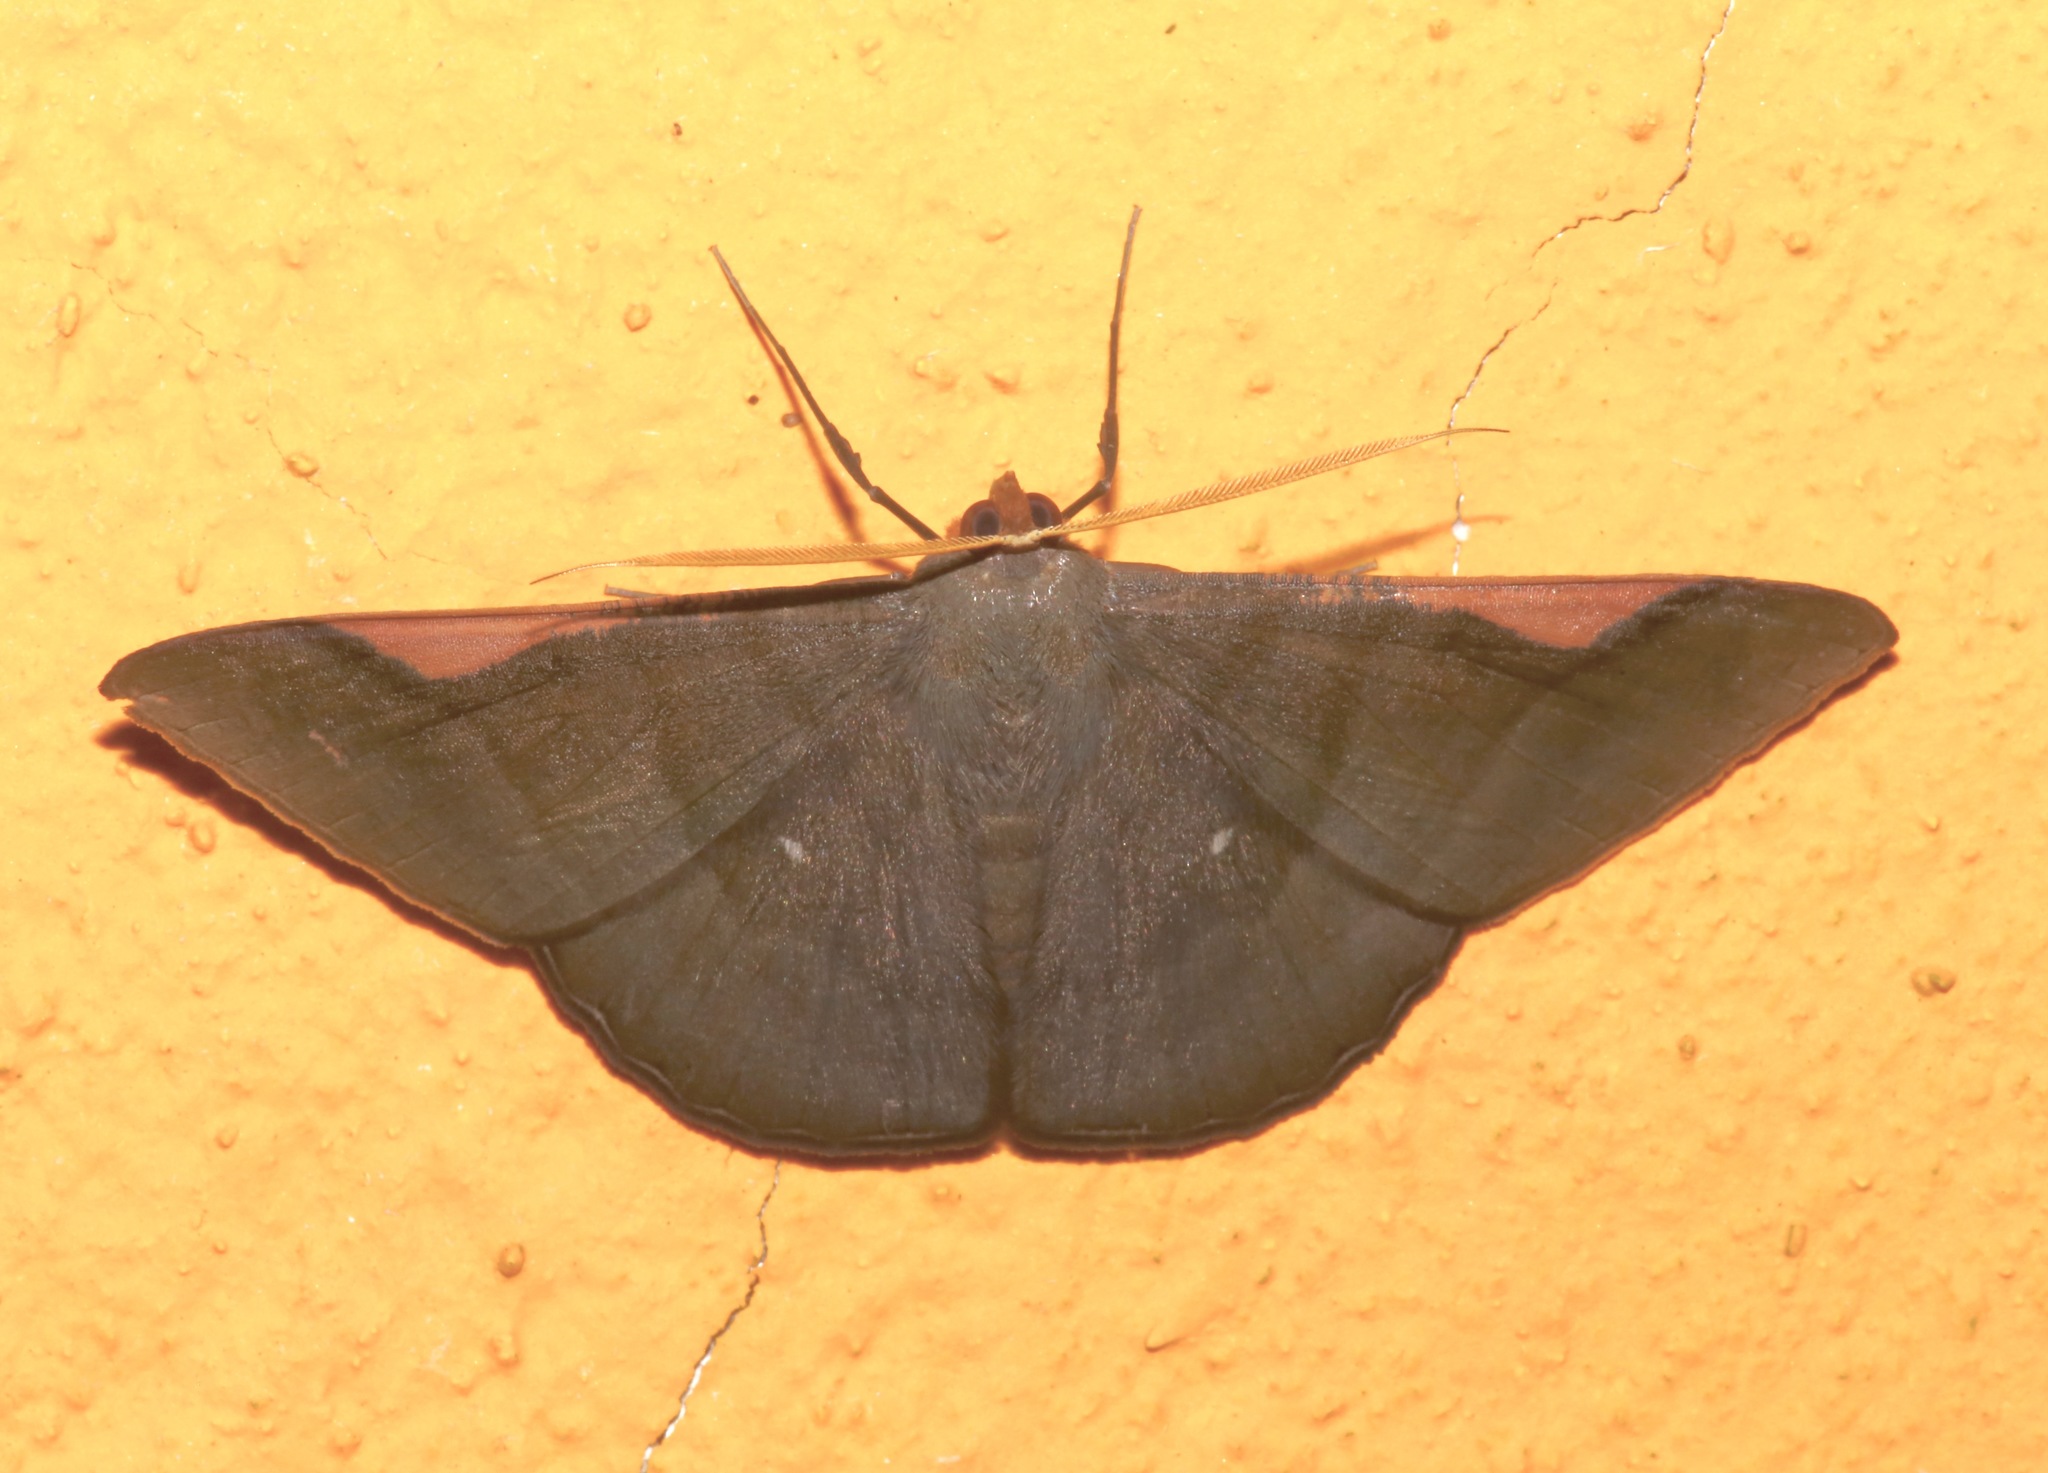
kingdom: Animalia
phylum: Arthropoda
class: Insecta
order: Lepidoptera
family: Geometridae
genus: Sphacelodes
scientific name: Sphacelodes vulneraria
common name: Looper moth
